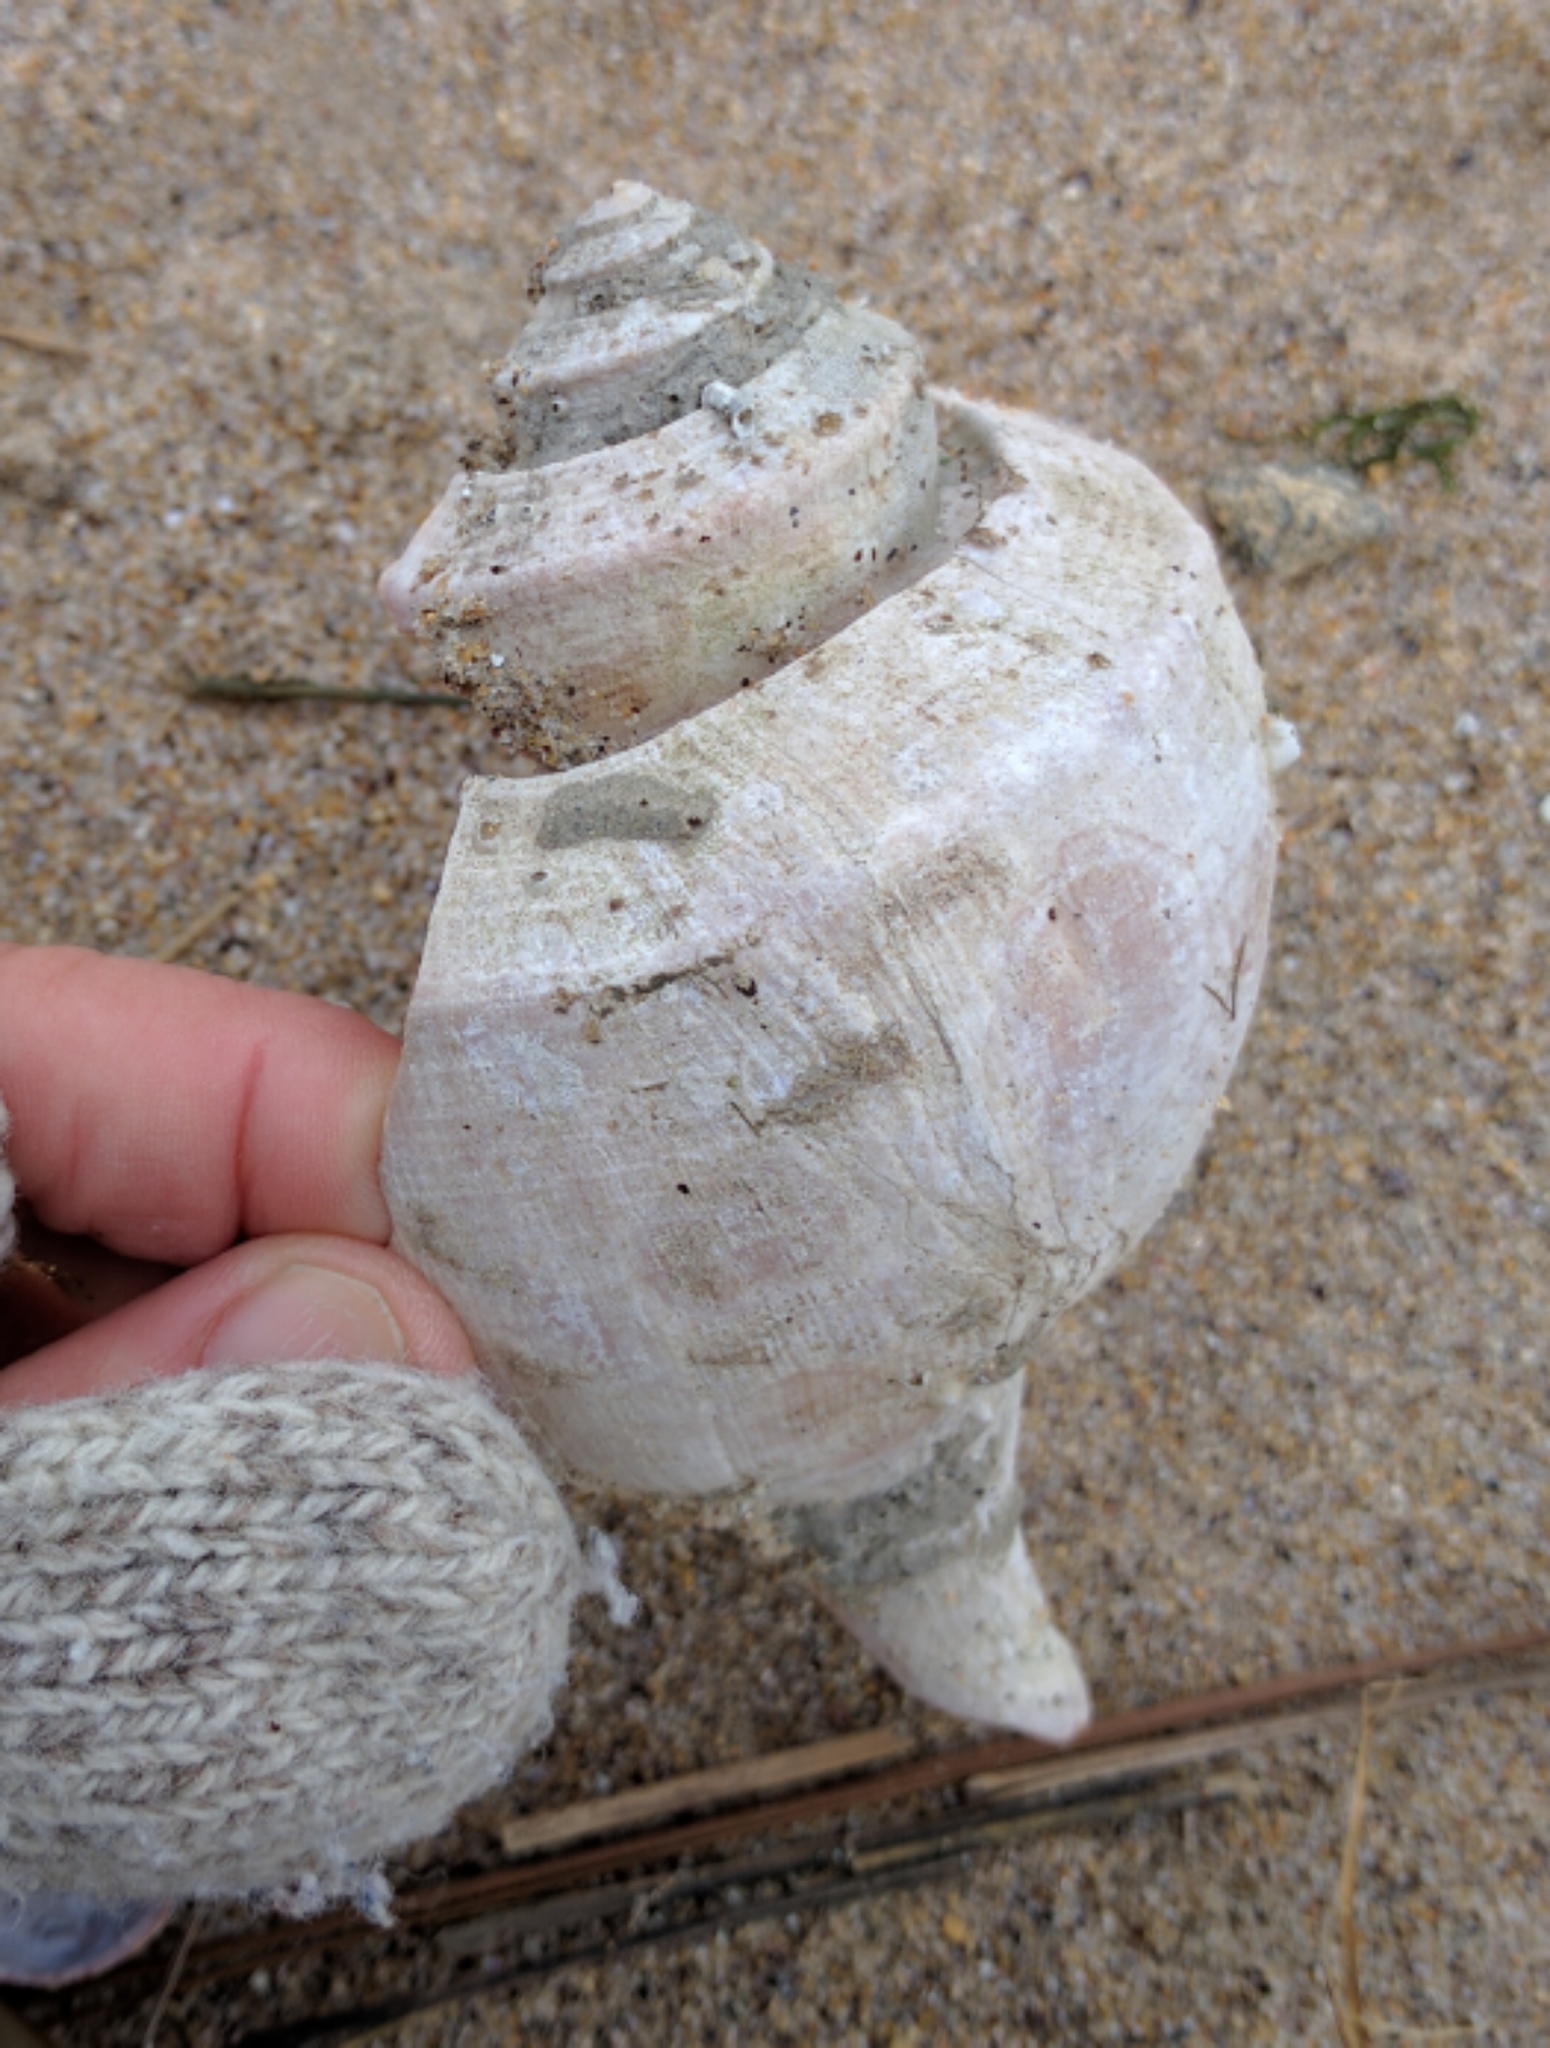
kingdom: Animalia
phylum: Mollusca
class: Gastropoda
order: Neogastropoda
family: Busyconidae
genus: Busycotypus
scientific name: Busycotypus canaliculatus
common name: Channeled whelk
